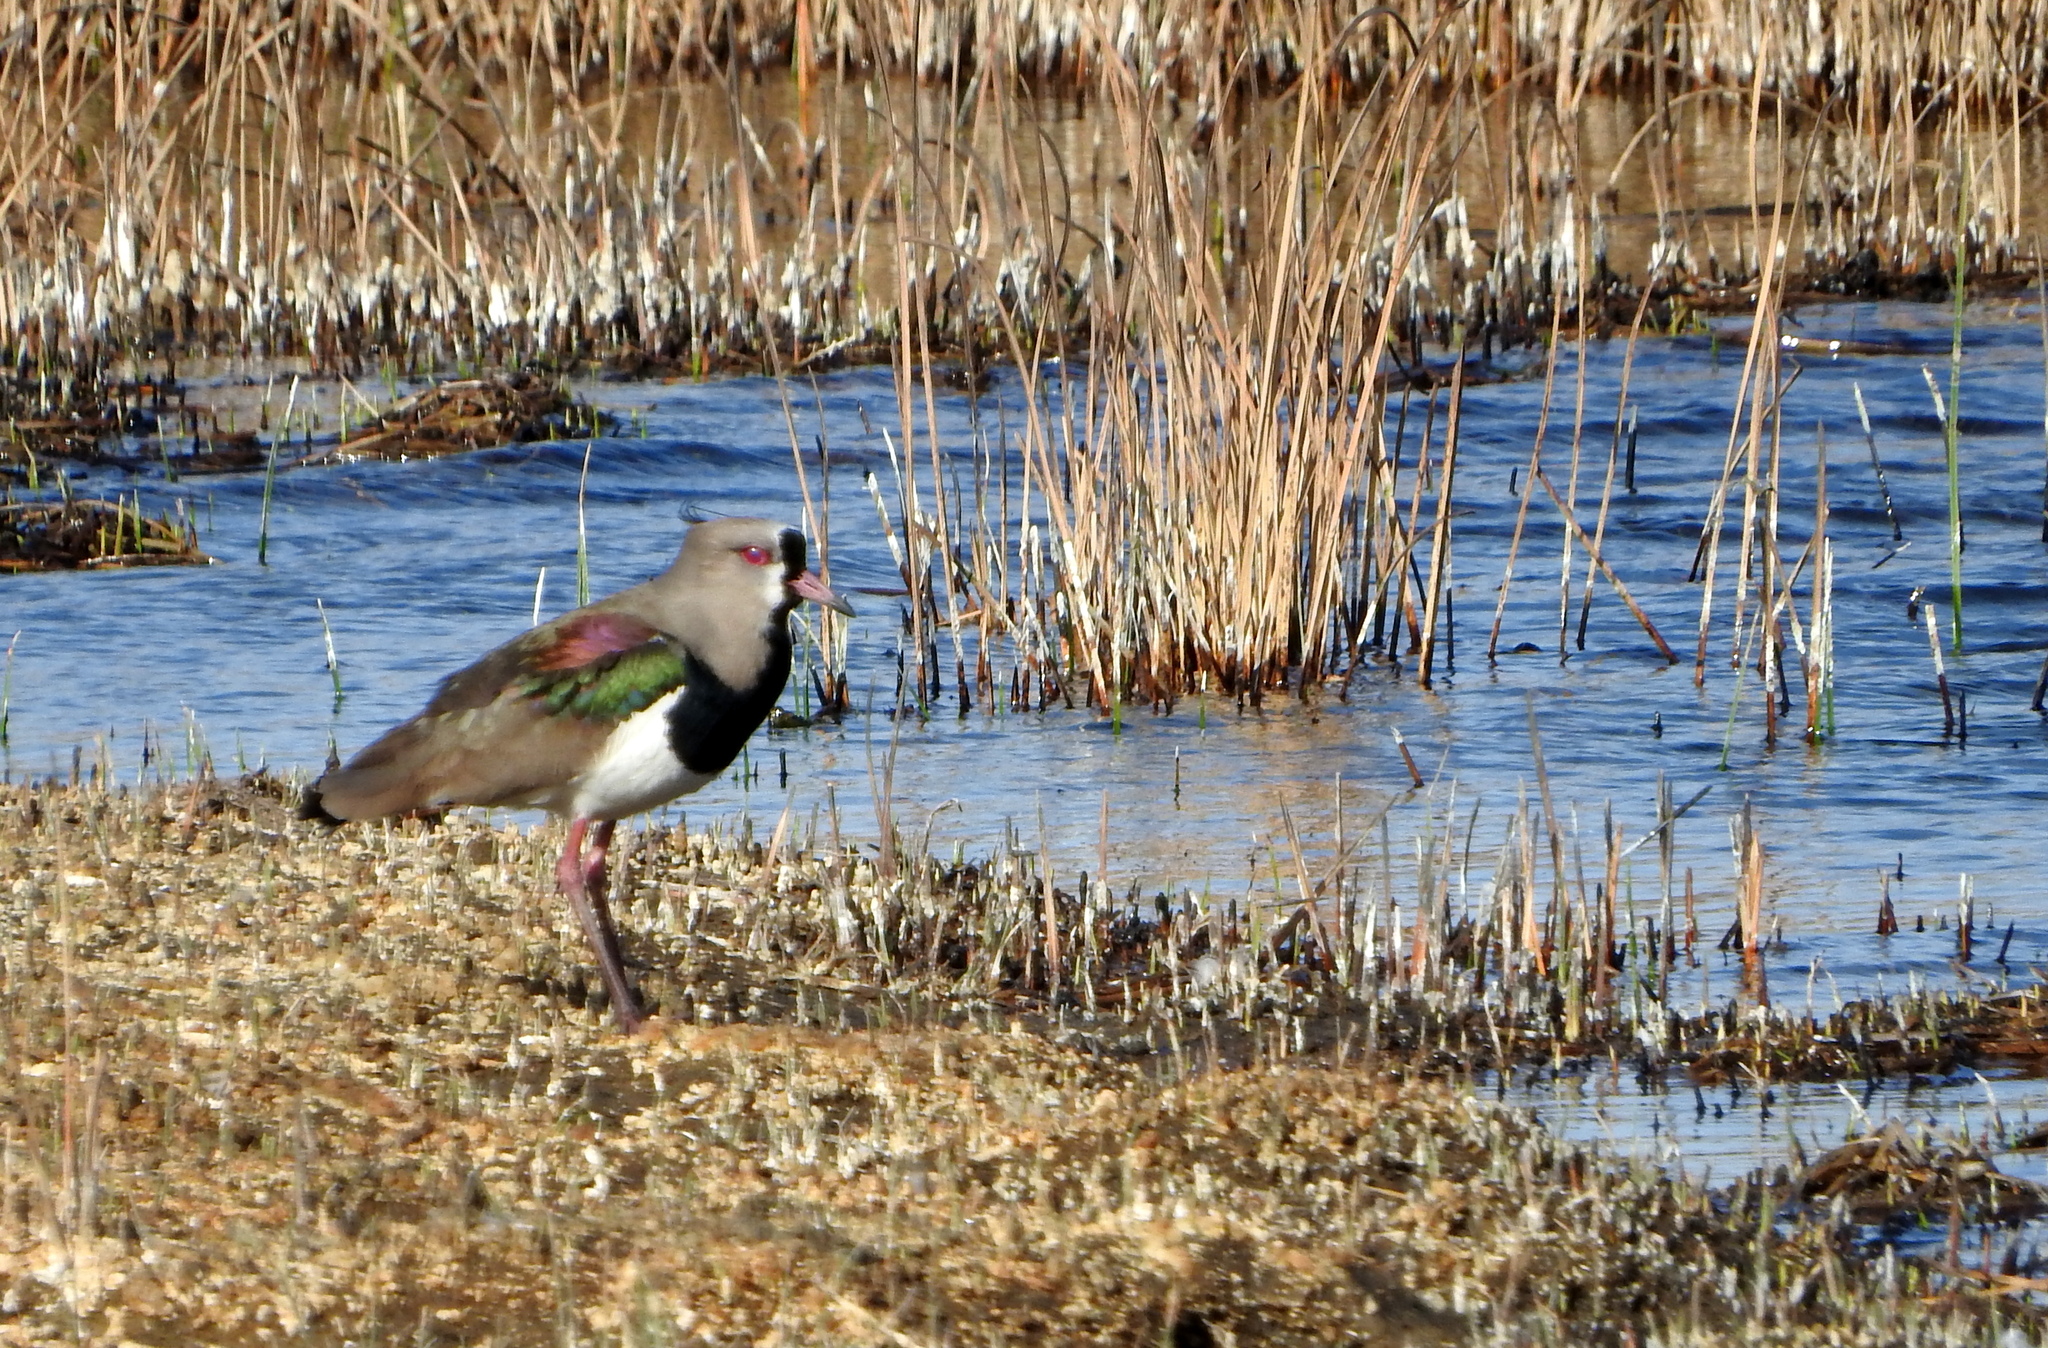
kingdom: Animalia
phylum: Chordata
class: Aves
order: Charadriiformes
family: Charadriidae
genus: Vanellus
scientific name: Vanellus chilensis
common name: Southern lapwing
